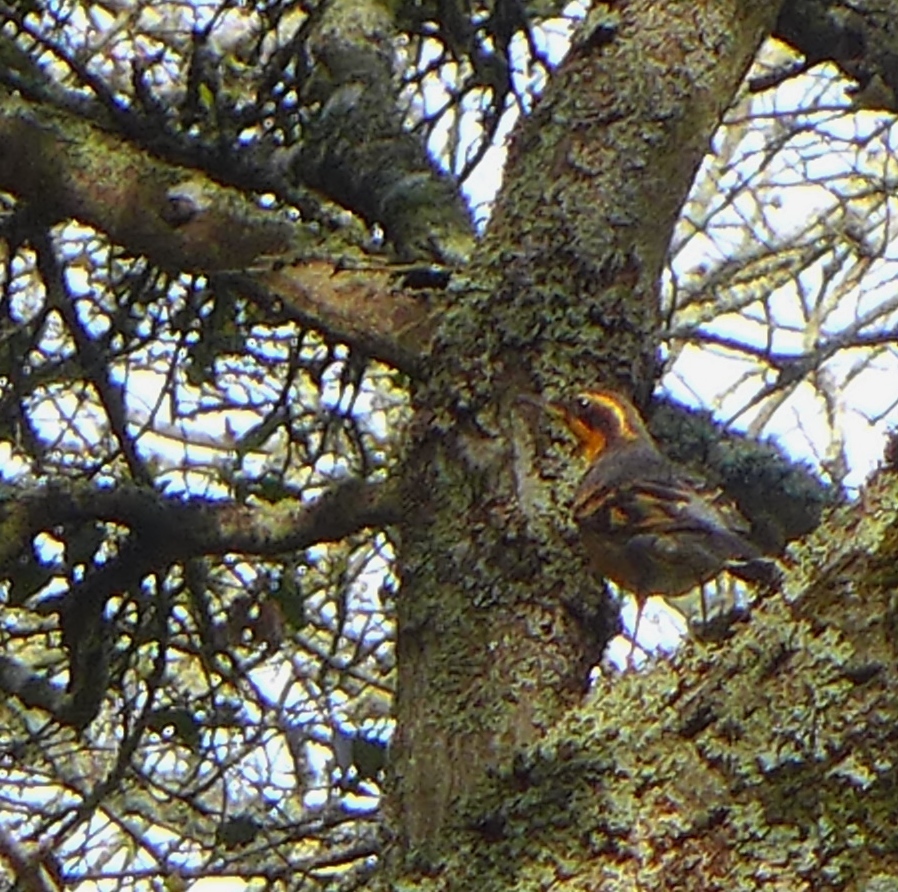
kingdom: Animalia
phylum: Chordata
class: Aves
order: Passeriformes
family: Turdidae
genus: Ixoreus
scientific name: Ixoreus naevius
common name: Varied thrush
